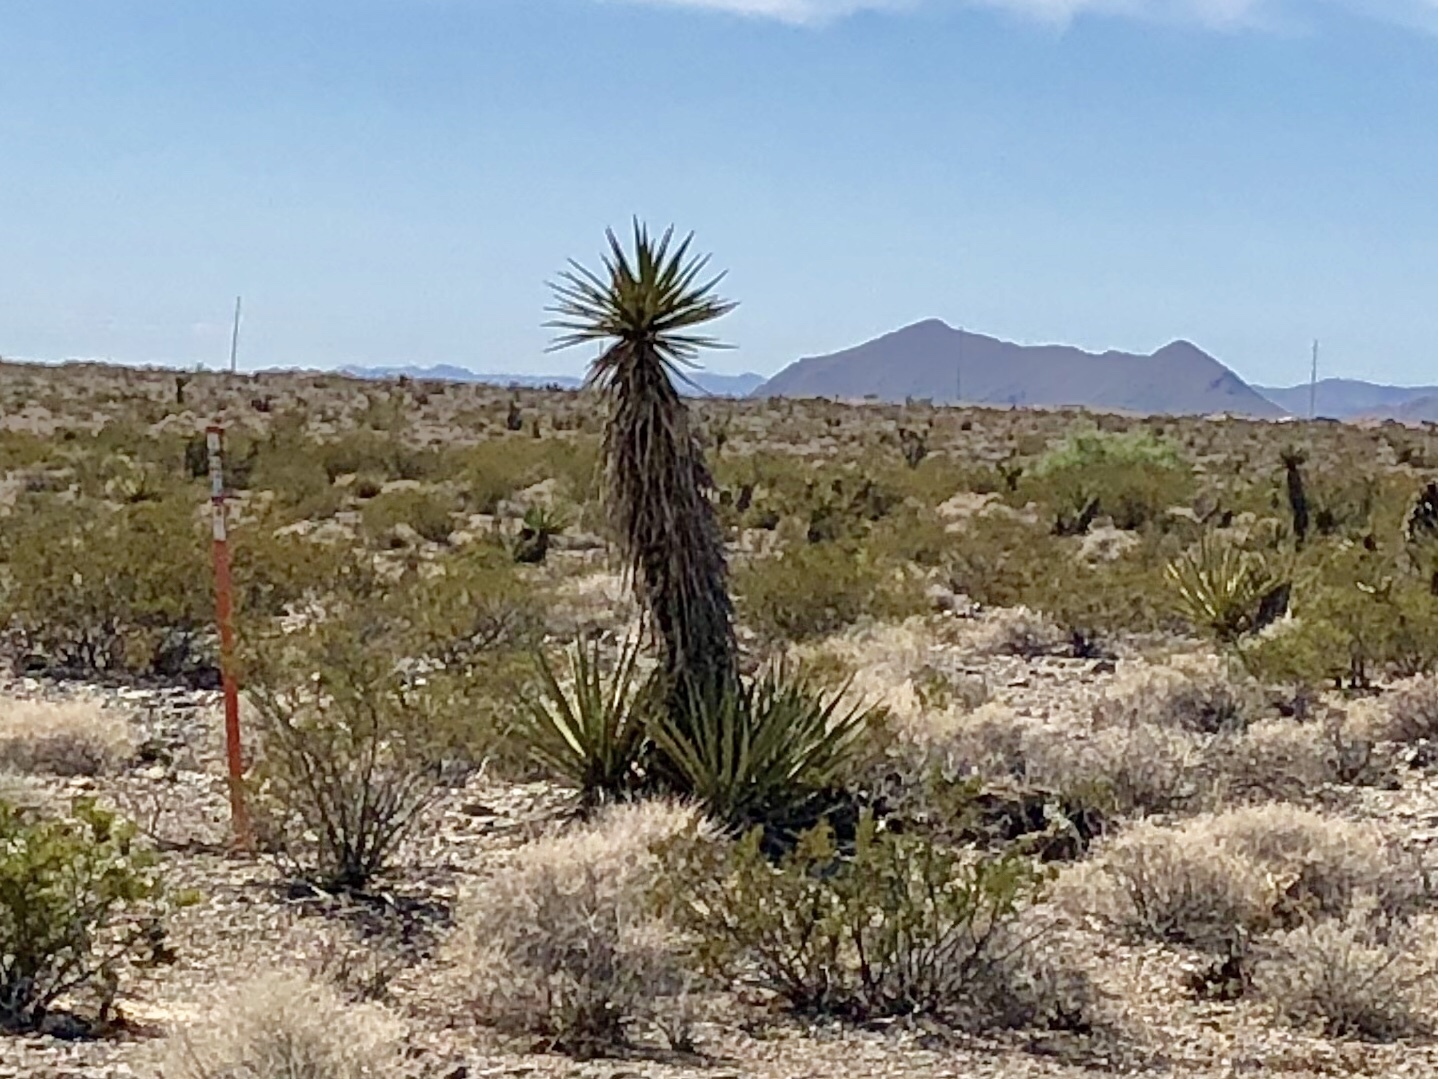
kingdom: Plantae
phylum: Tracheophyta
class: Liliopsida
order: Asparagales
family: Asparagaceae
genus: Yucca
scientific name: Yucca schidigera
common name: Mojave yucca
